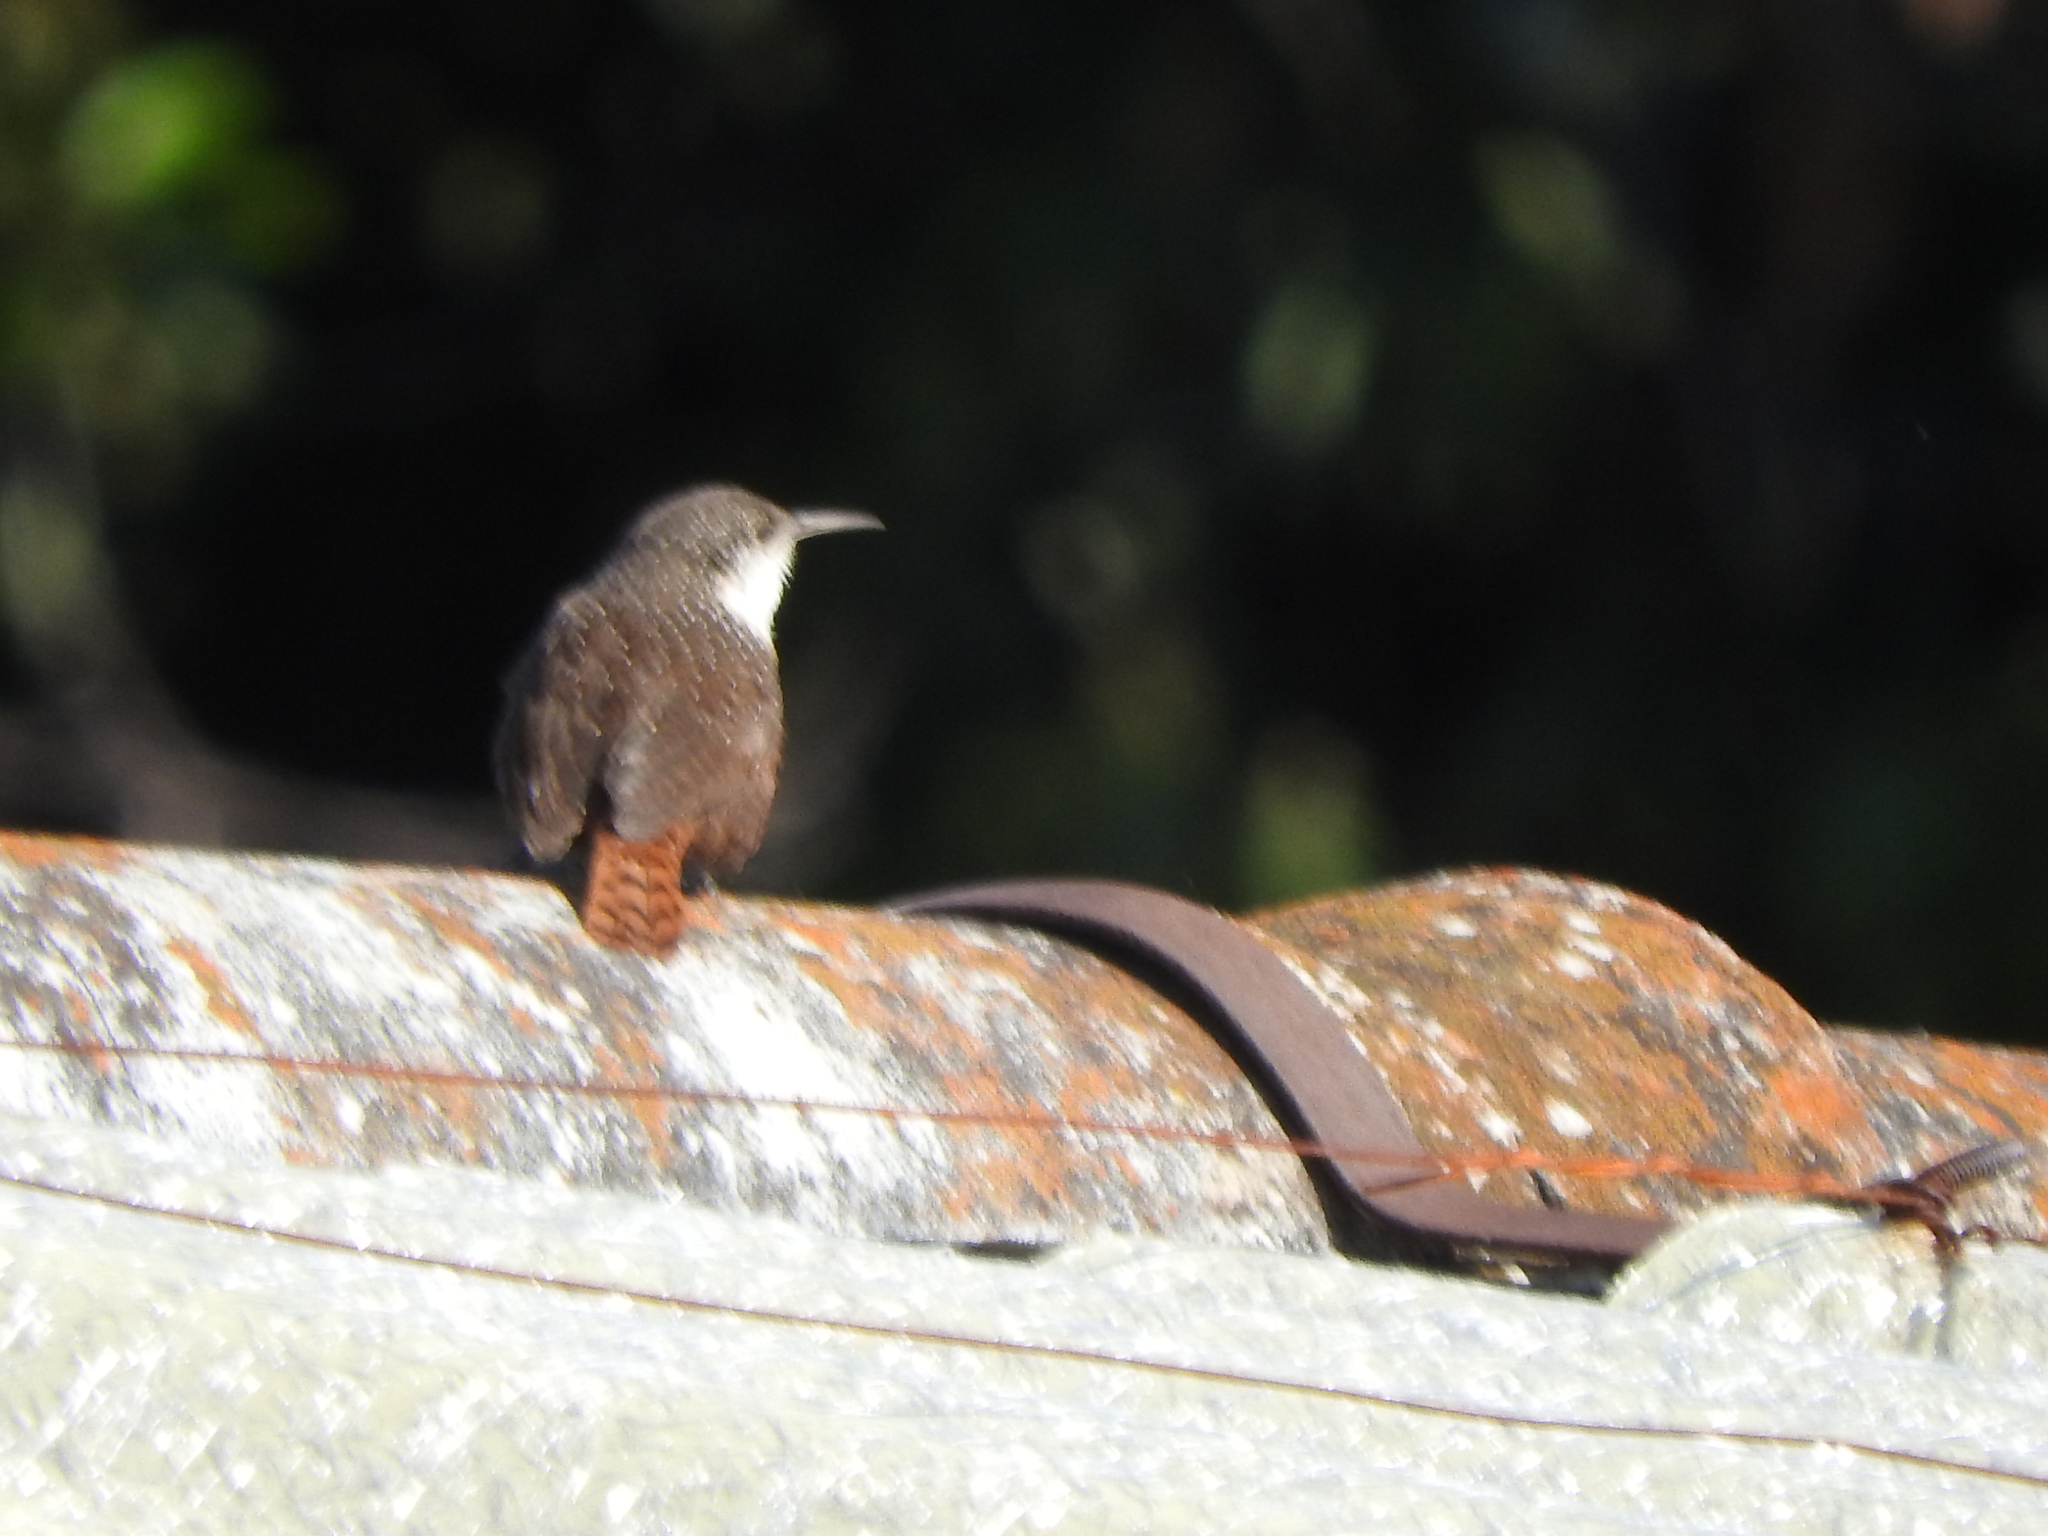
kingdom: Animalia
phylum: Chordata
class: Aves
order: Passeriformes
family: Troglodytidae
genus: Catherpes
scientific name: Catherpes mexicanus
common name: Canyon wren
